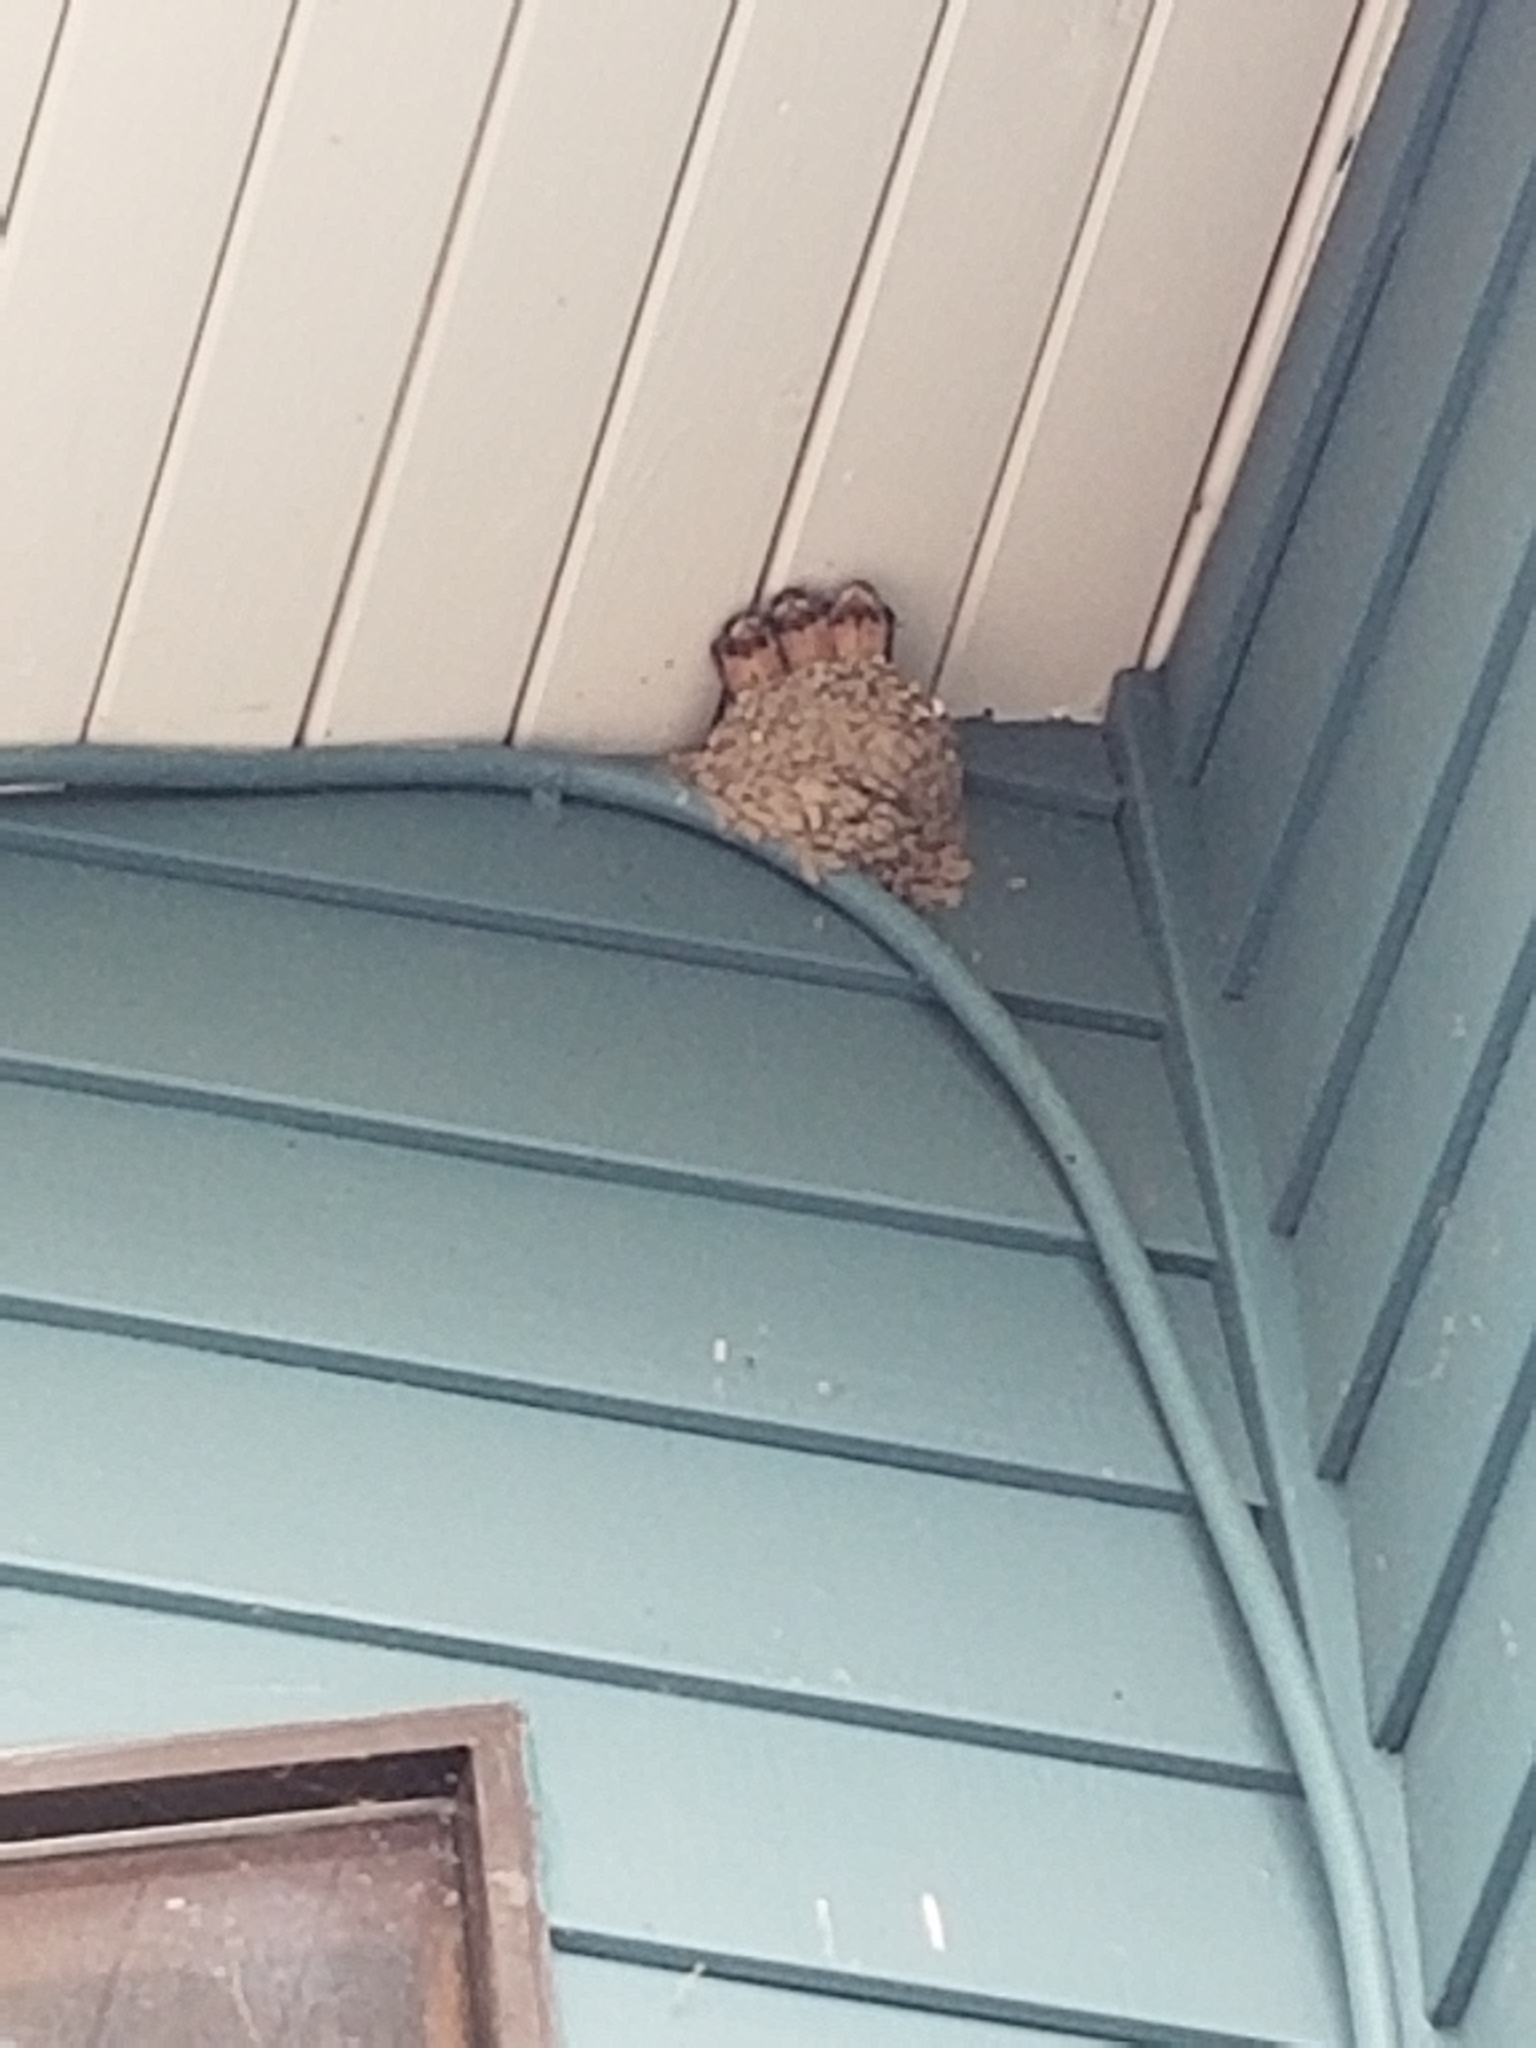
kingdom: Animalia
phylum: Chordata
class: Aves
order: Passeriformes
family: Hirundinidae
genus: Hirundo
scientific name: Hirundo rustica
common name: Barn swallow
